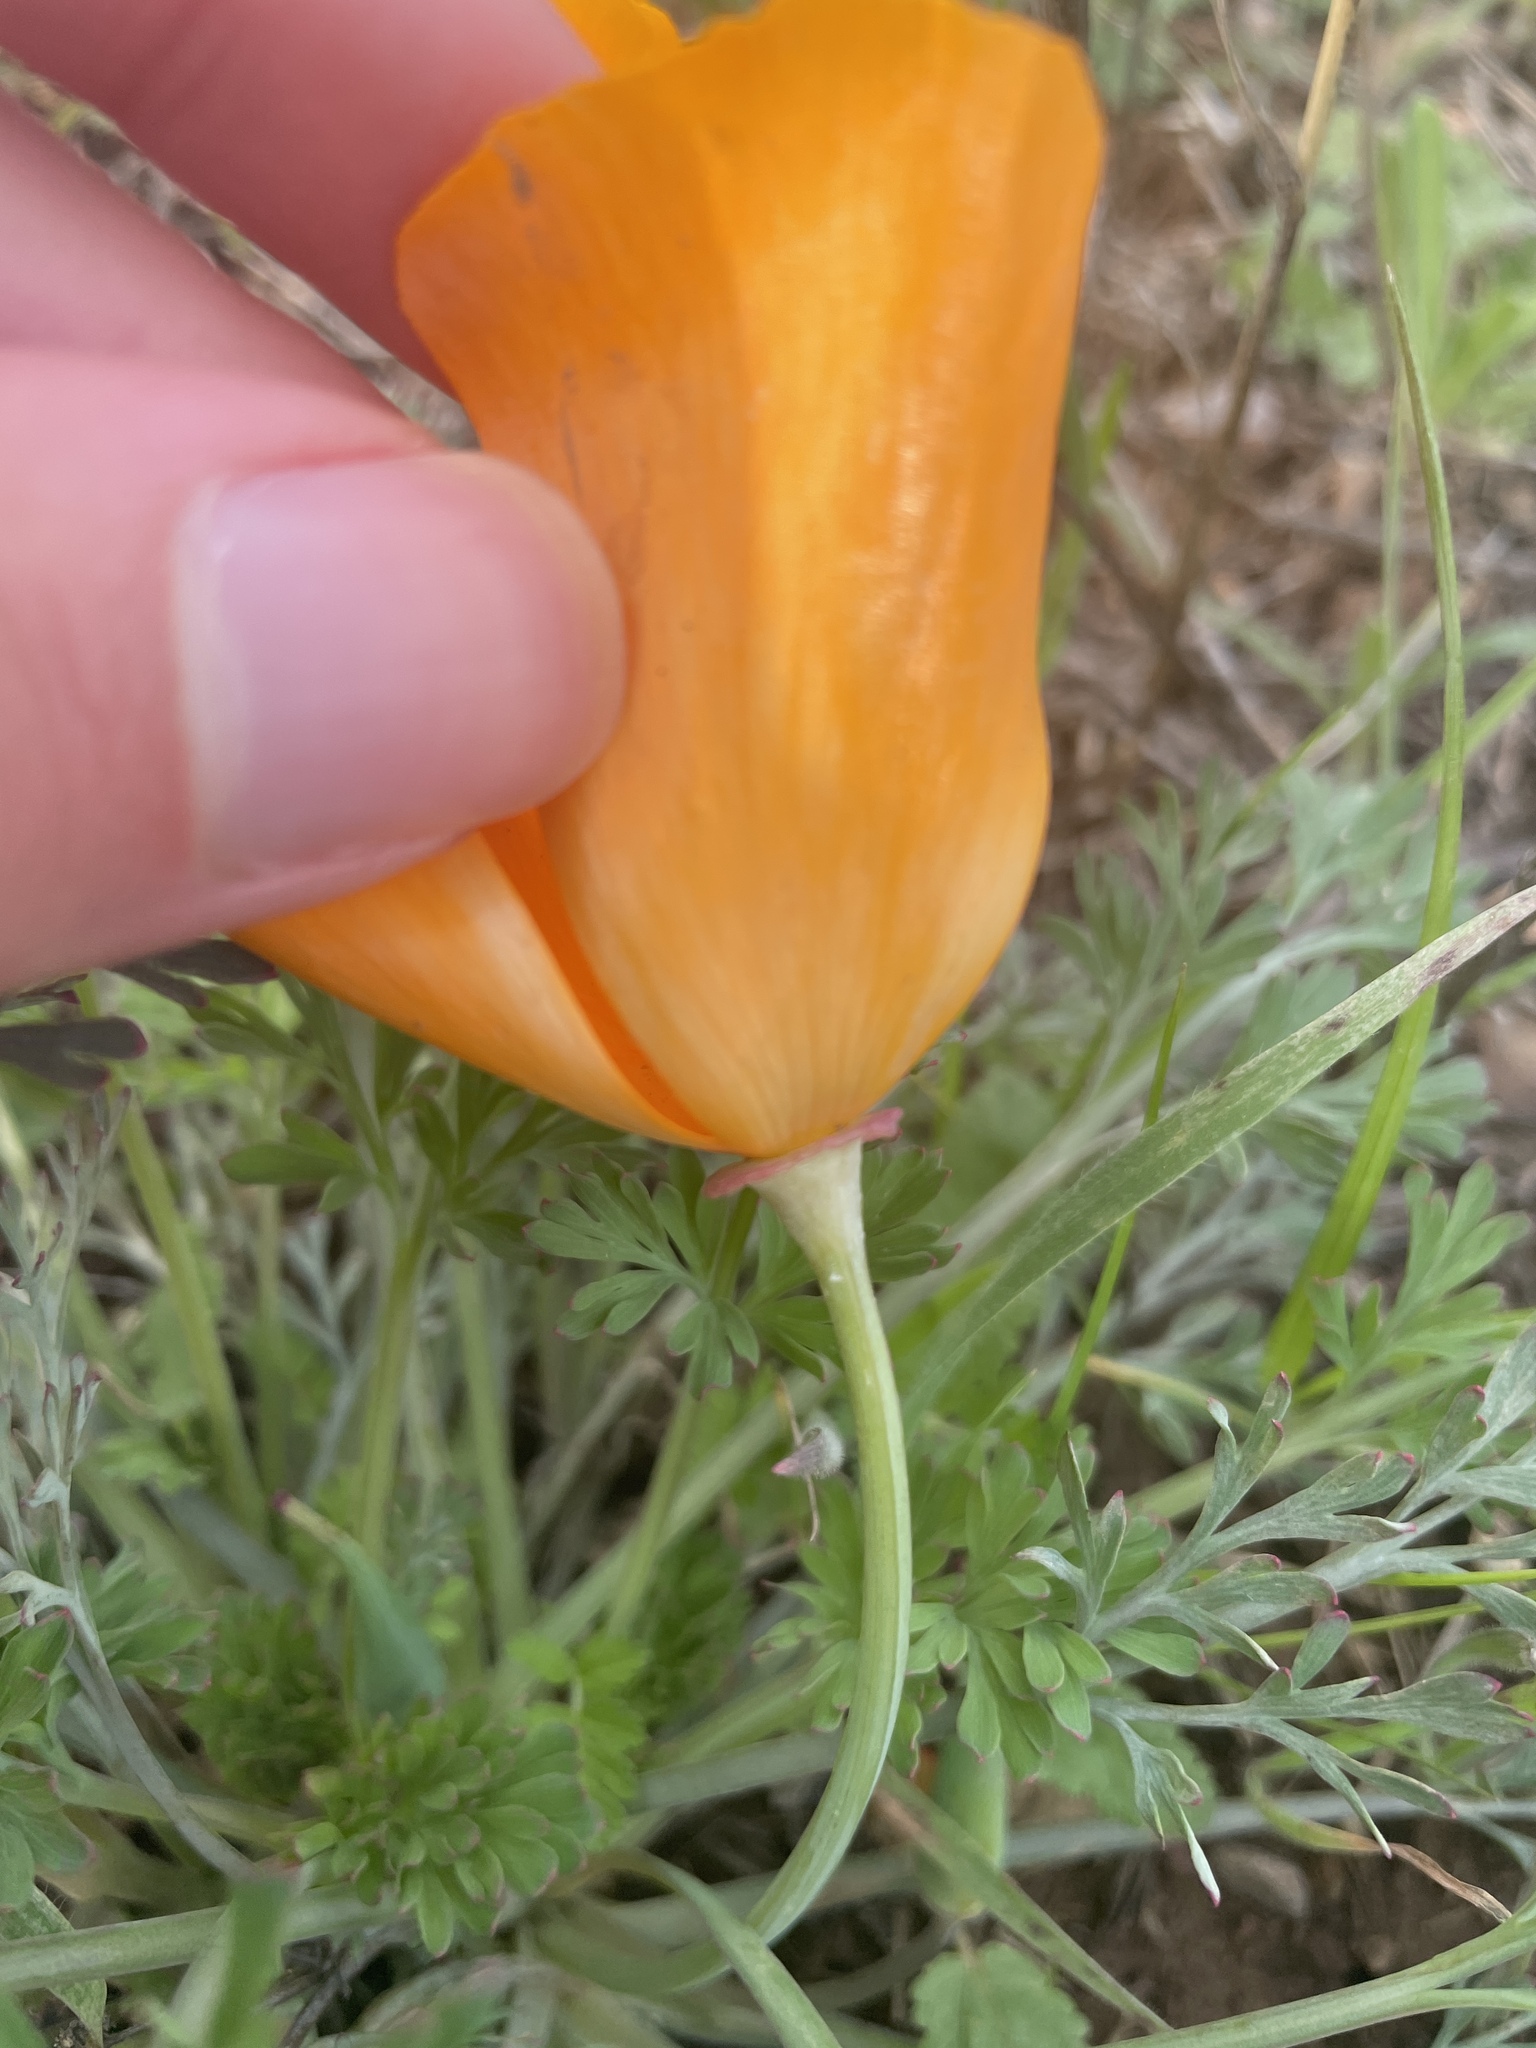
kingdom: Plantae
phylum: Tracheophyta
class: Magnoliopsida
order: Ranunculales
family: Papaveraceae
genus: Eschscholzia
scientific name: Eschscholzia californica
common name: California poppy
